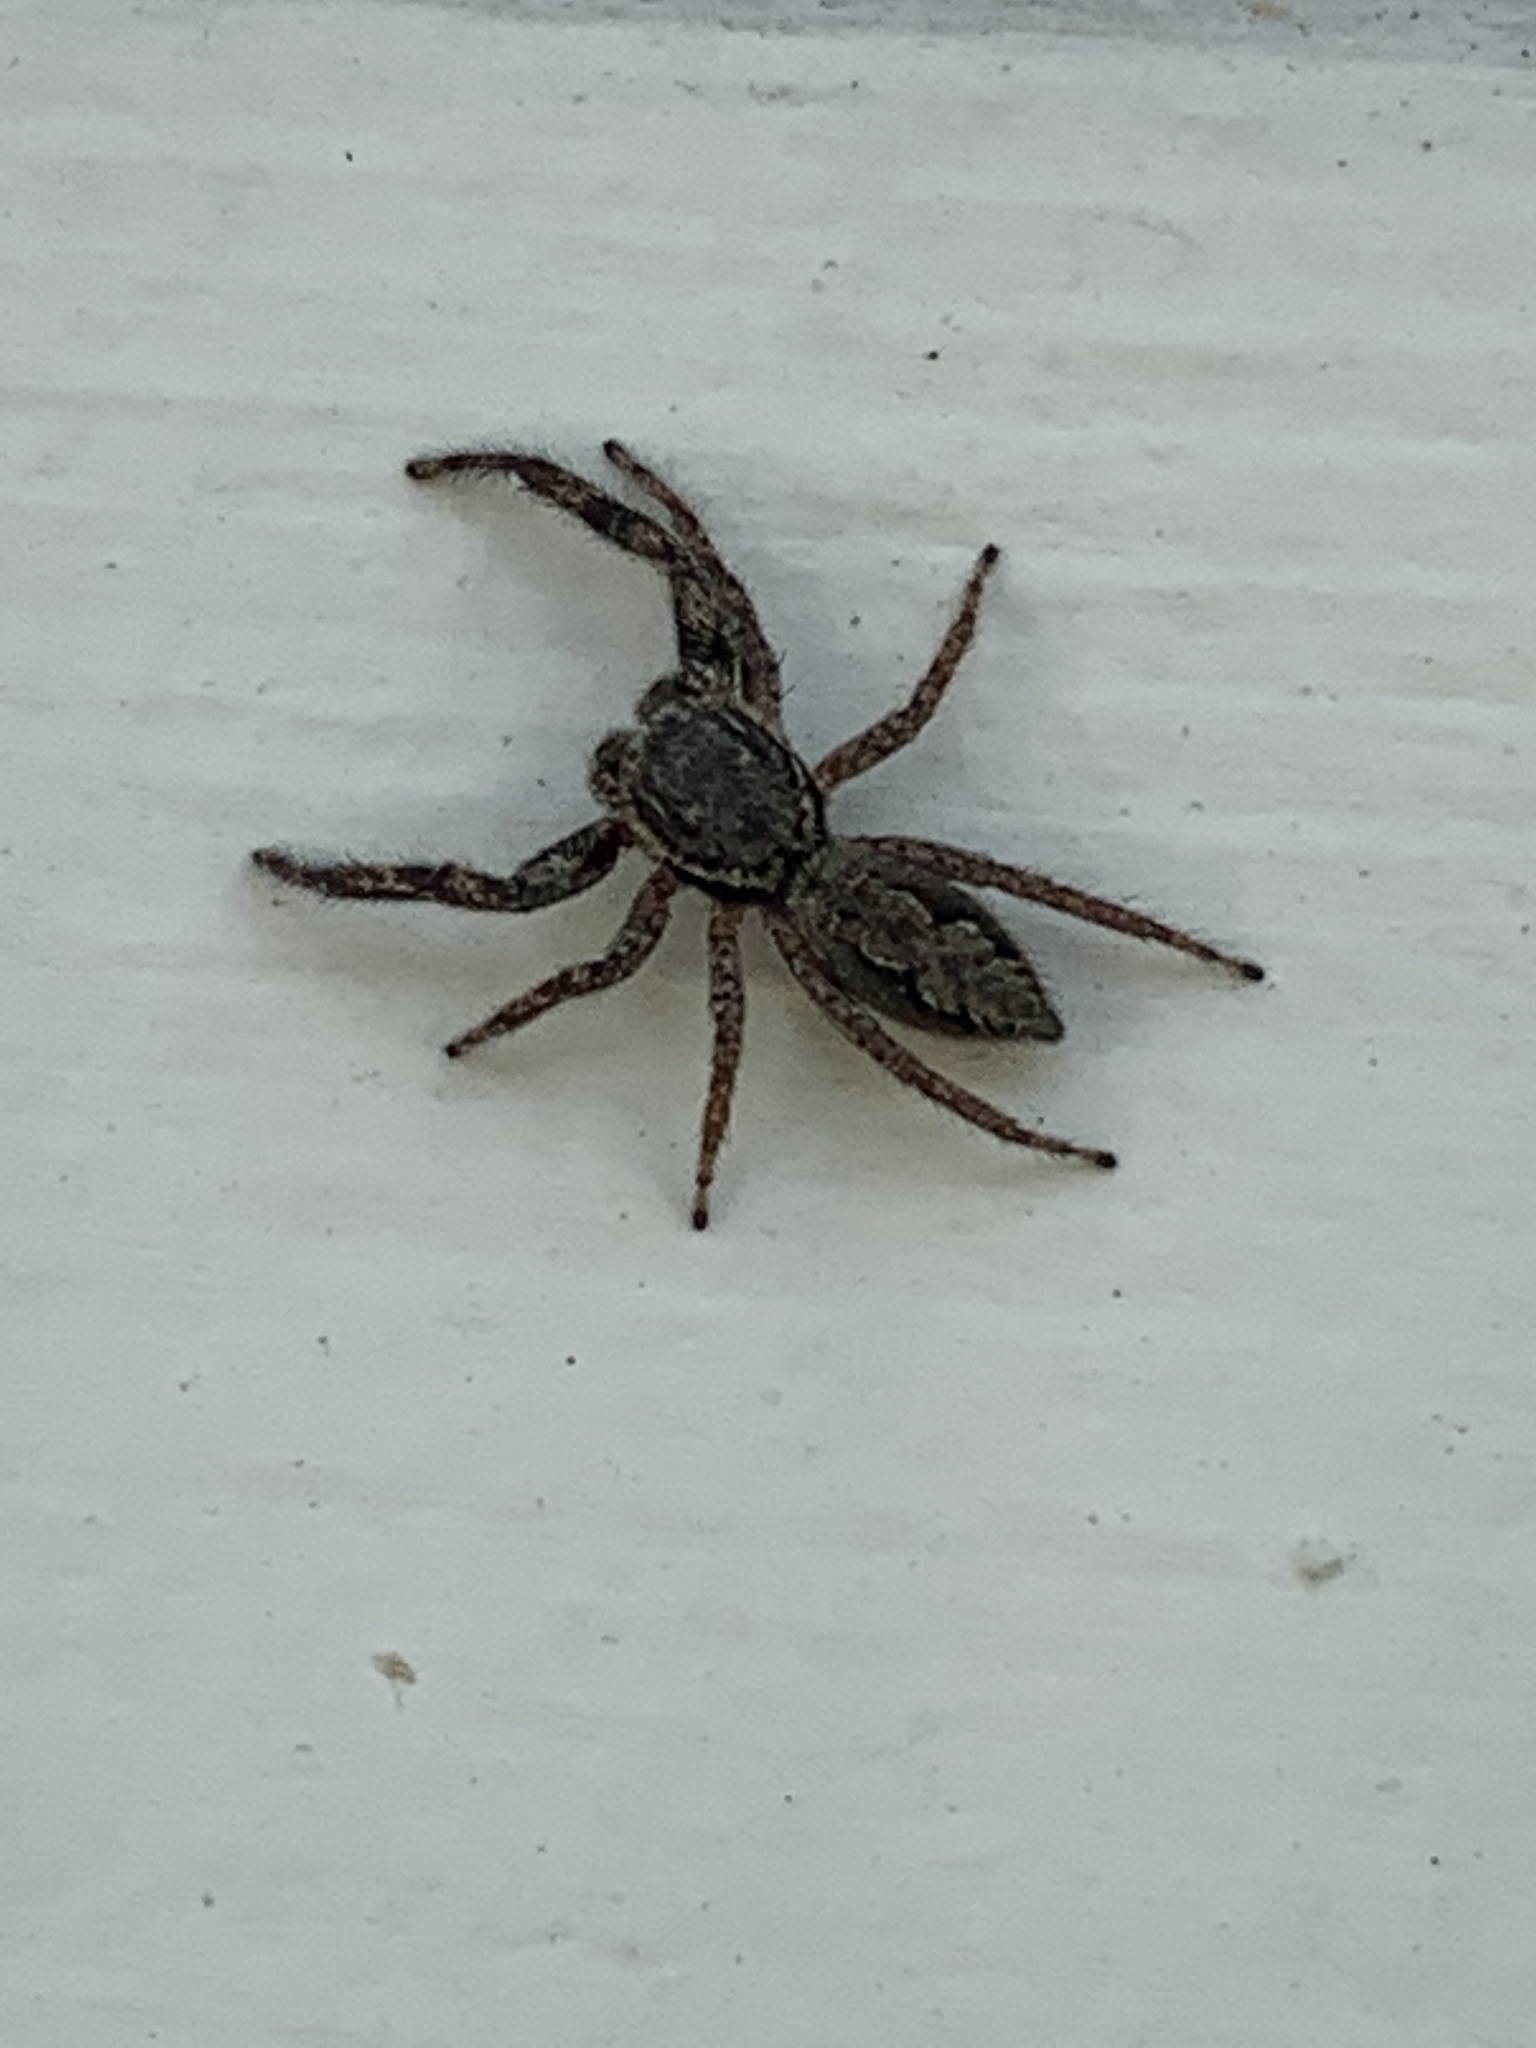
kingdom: Animalia
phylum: Arthropoda
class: Arachnida
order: Araneae
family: Salticidae
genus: Platycryptus
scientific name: Platycryptus undatus
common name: Tan jumping spider
